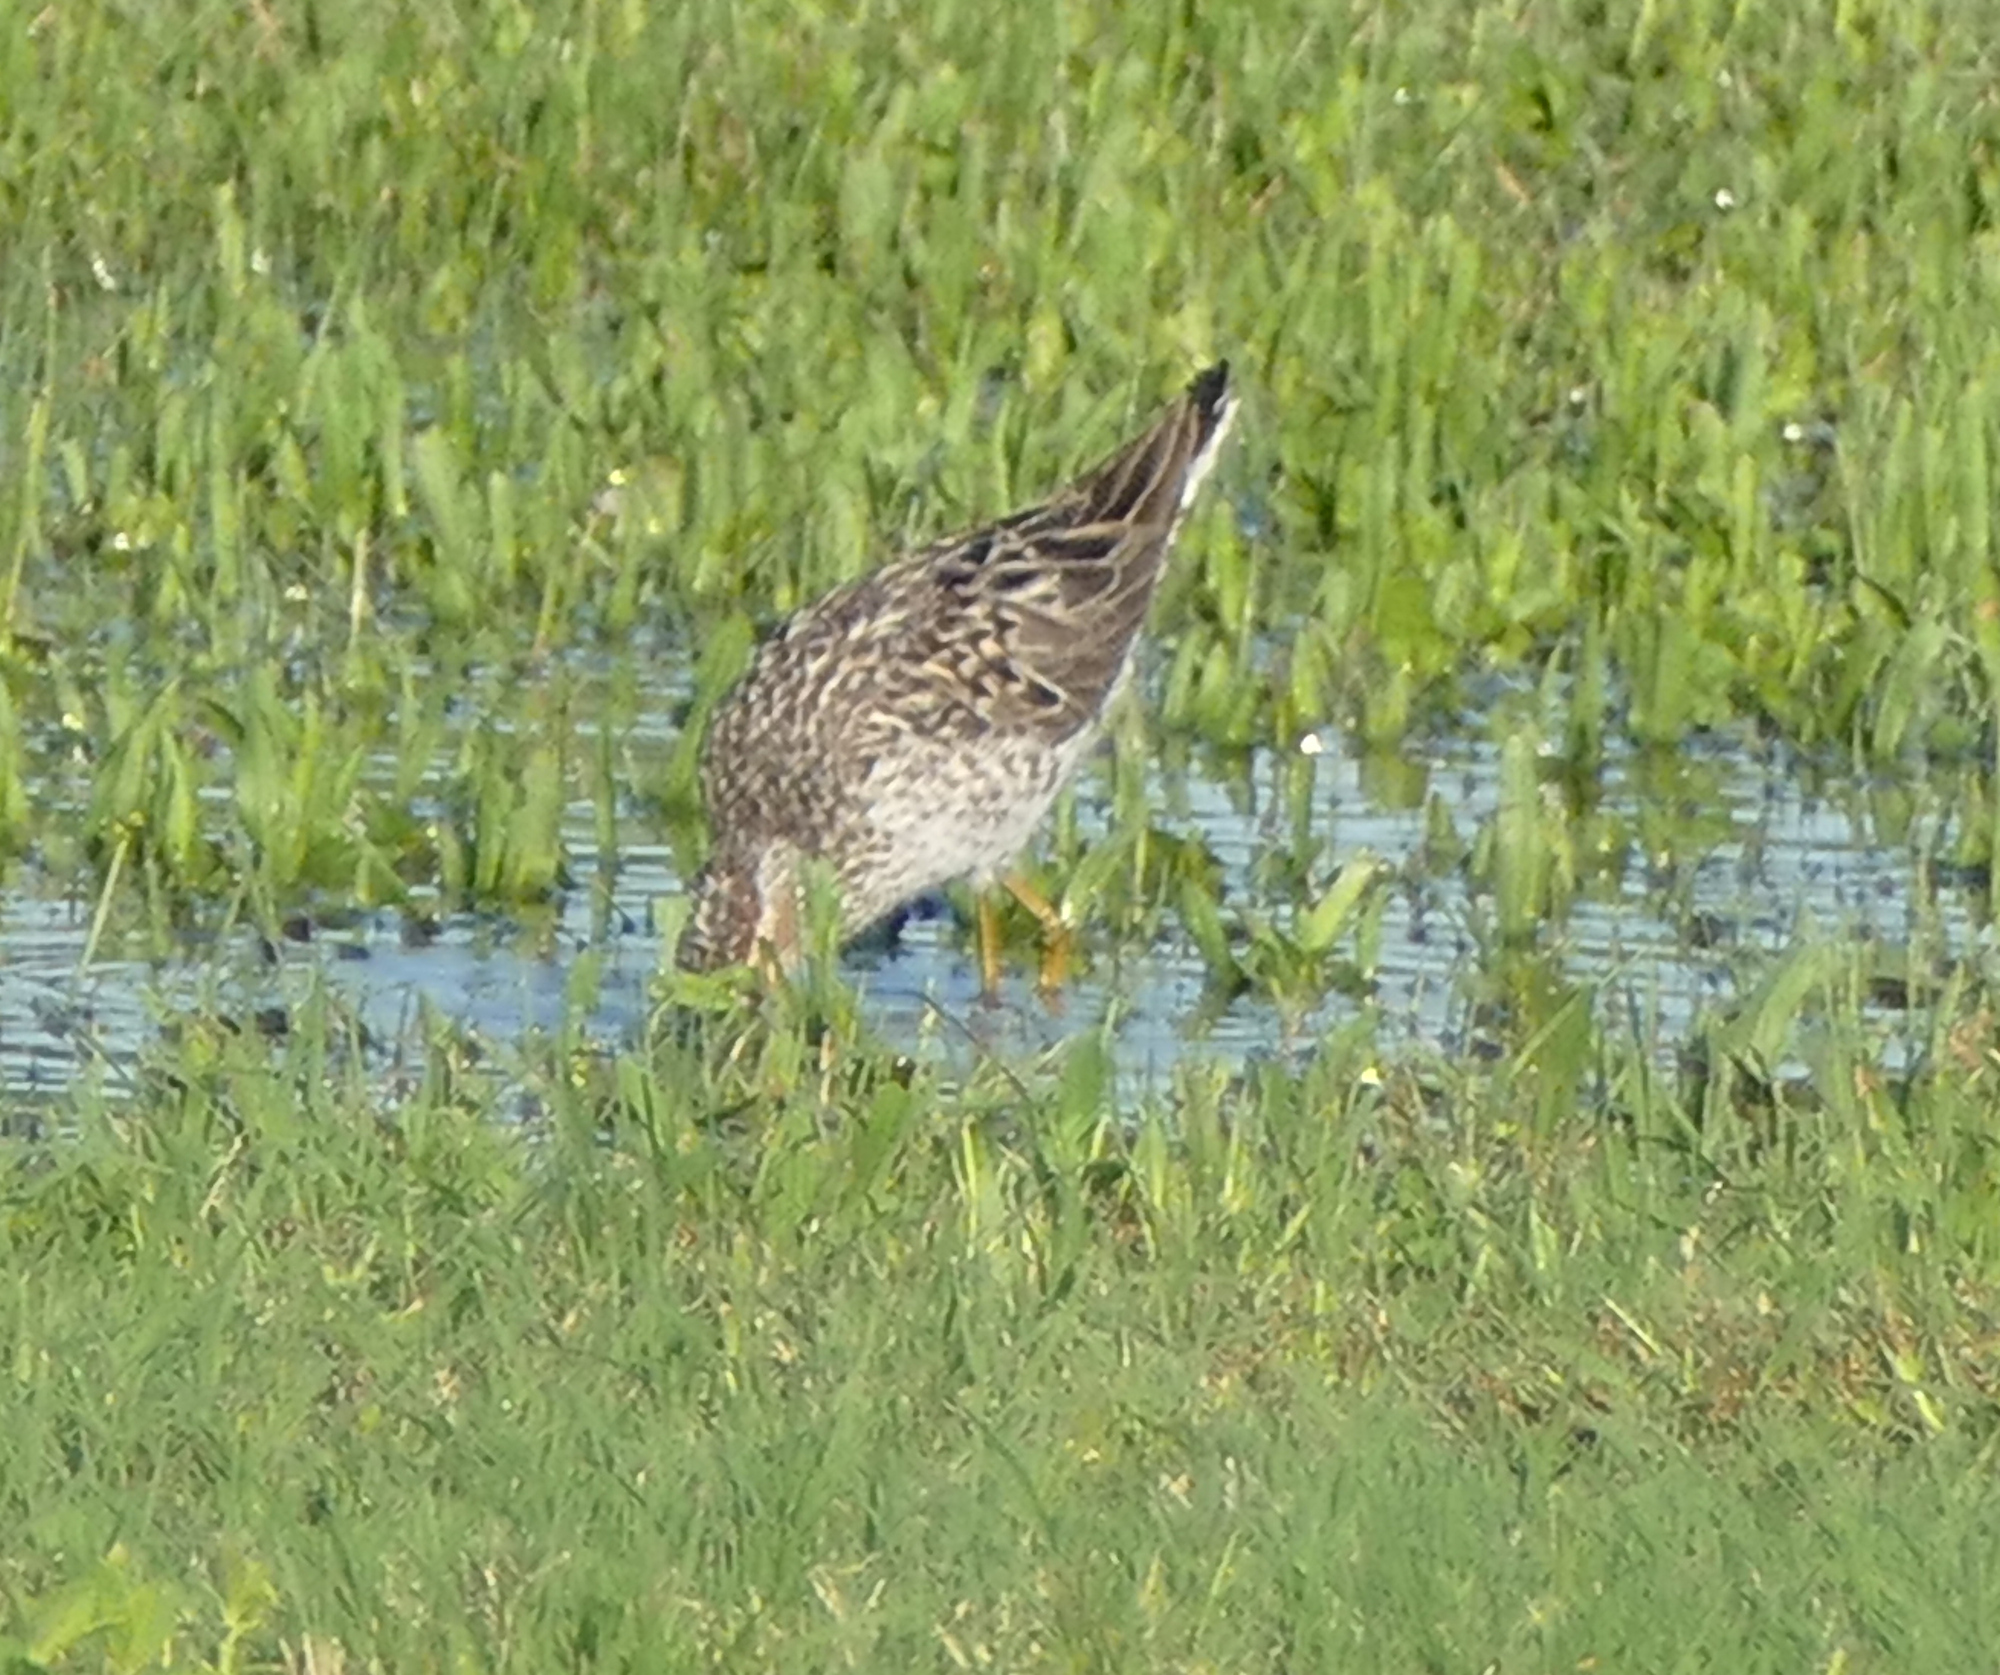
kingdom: Animalia
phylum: Chordata
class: Aves
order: Charadriiformes
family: Scolopacidae
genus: Calidris
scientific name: Calidris himantopus
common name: Stilt sandpiper
